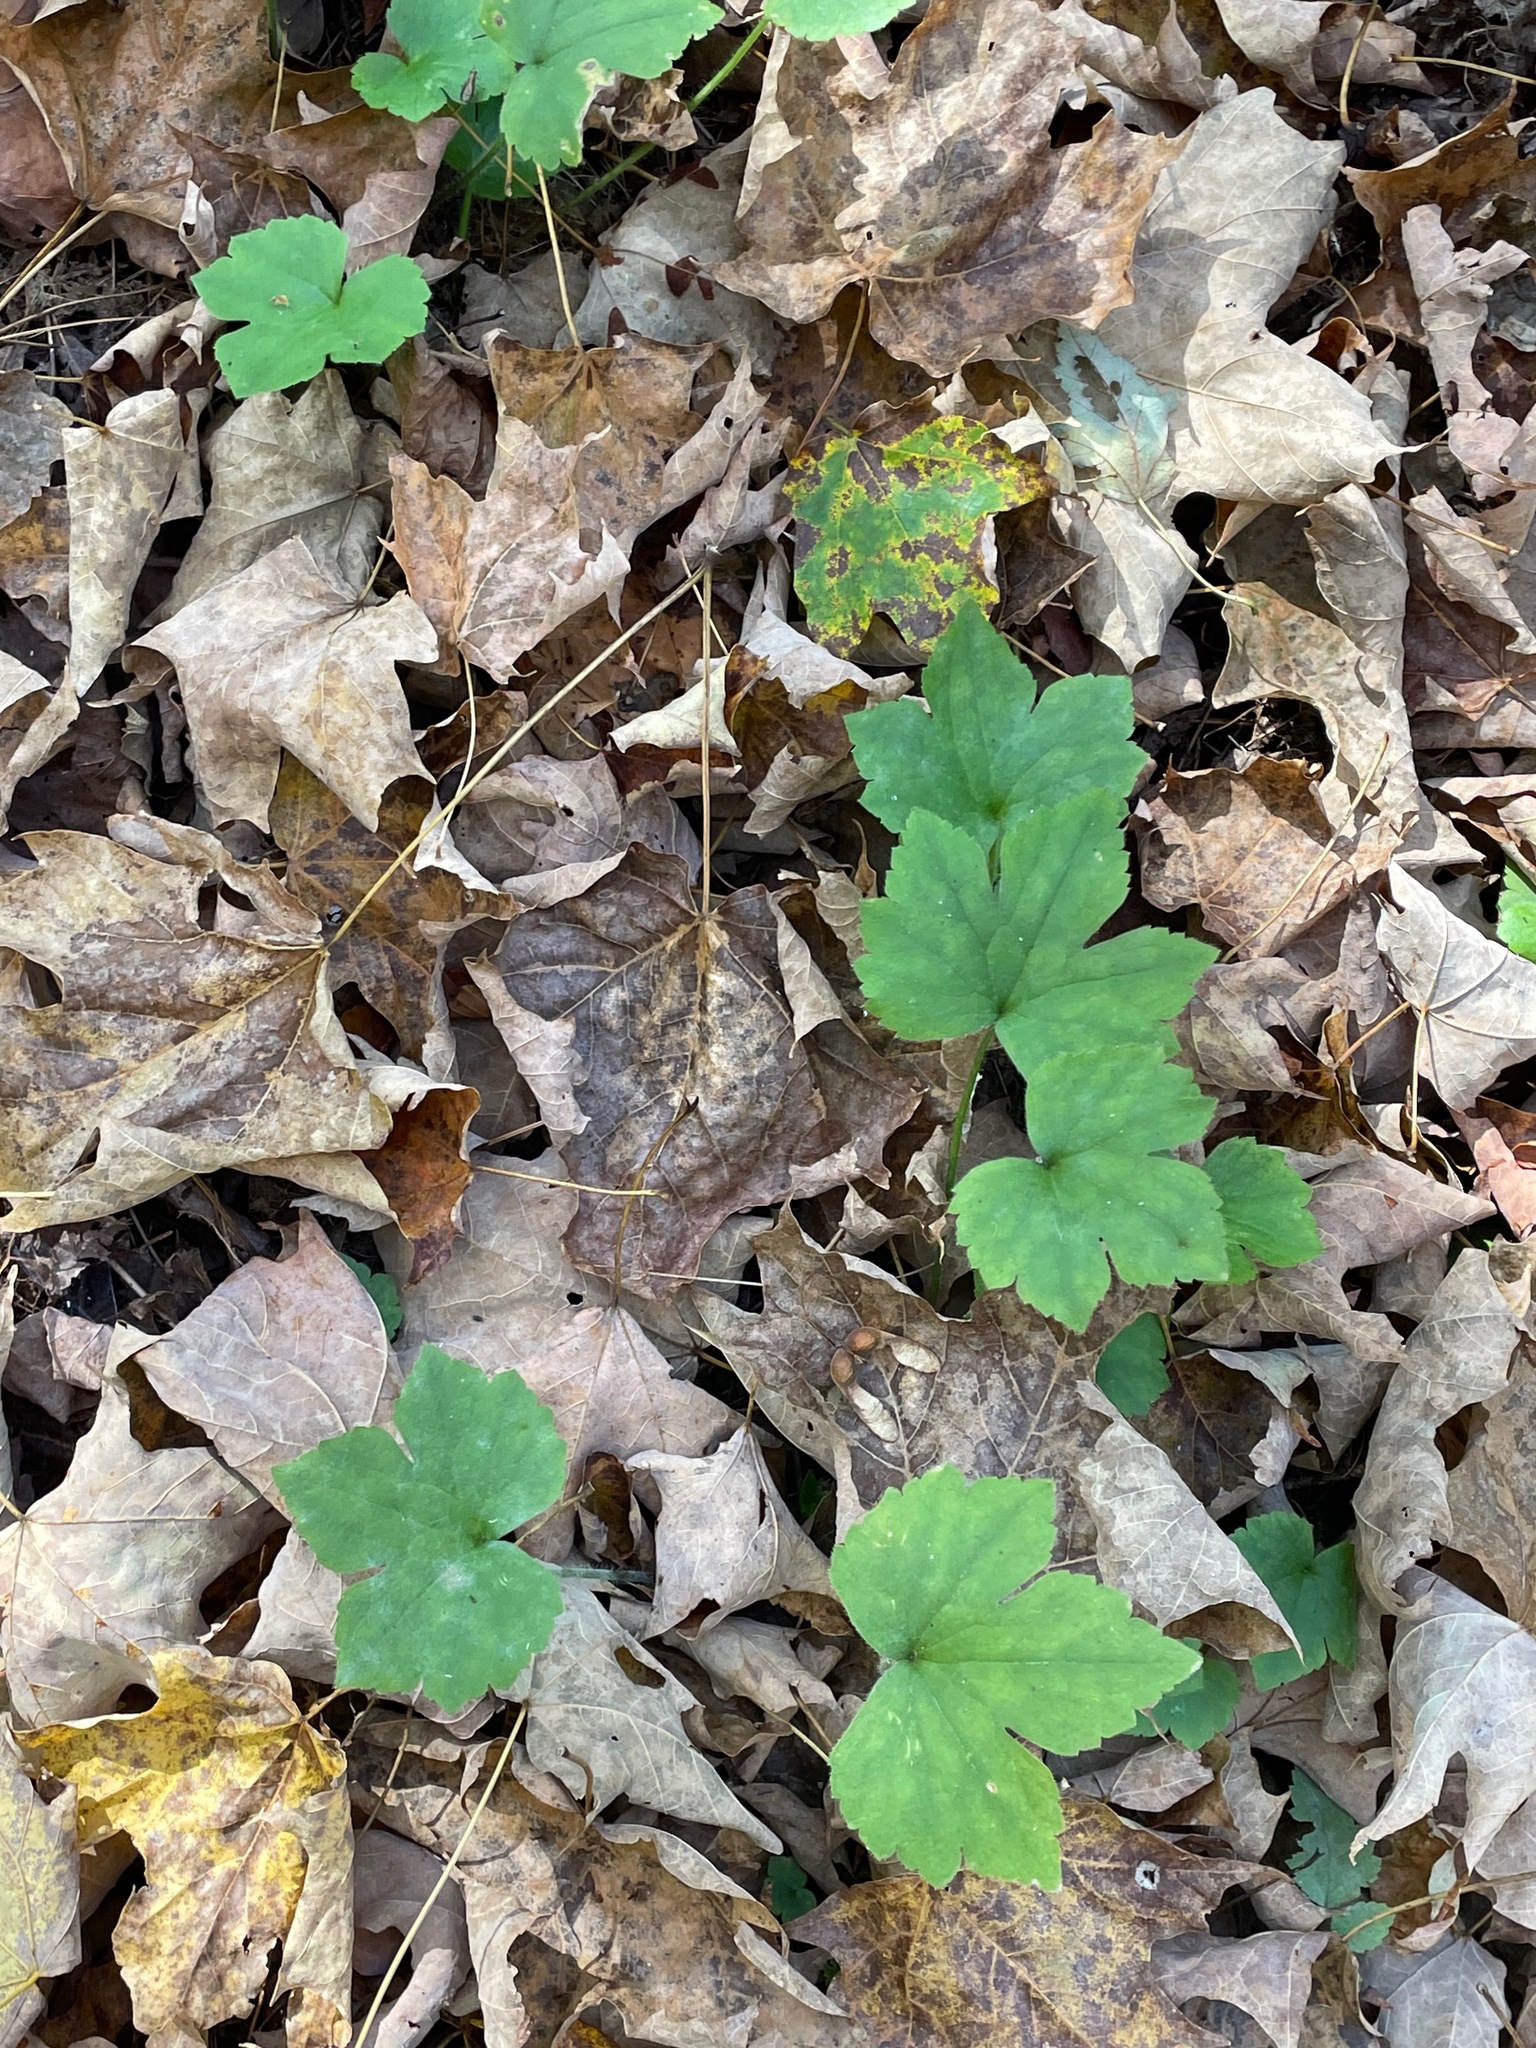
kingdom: Plantae
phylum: Tracheophyta
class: Magnoliopsida
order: Ranunculales
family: Ranunculaceae
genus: Ranunculus
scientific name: Ranunculus recurvatus
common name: Blisterwort
